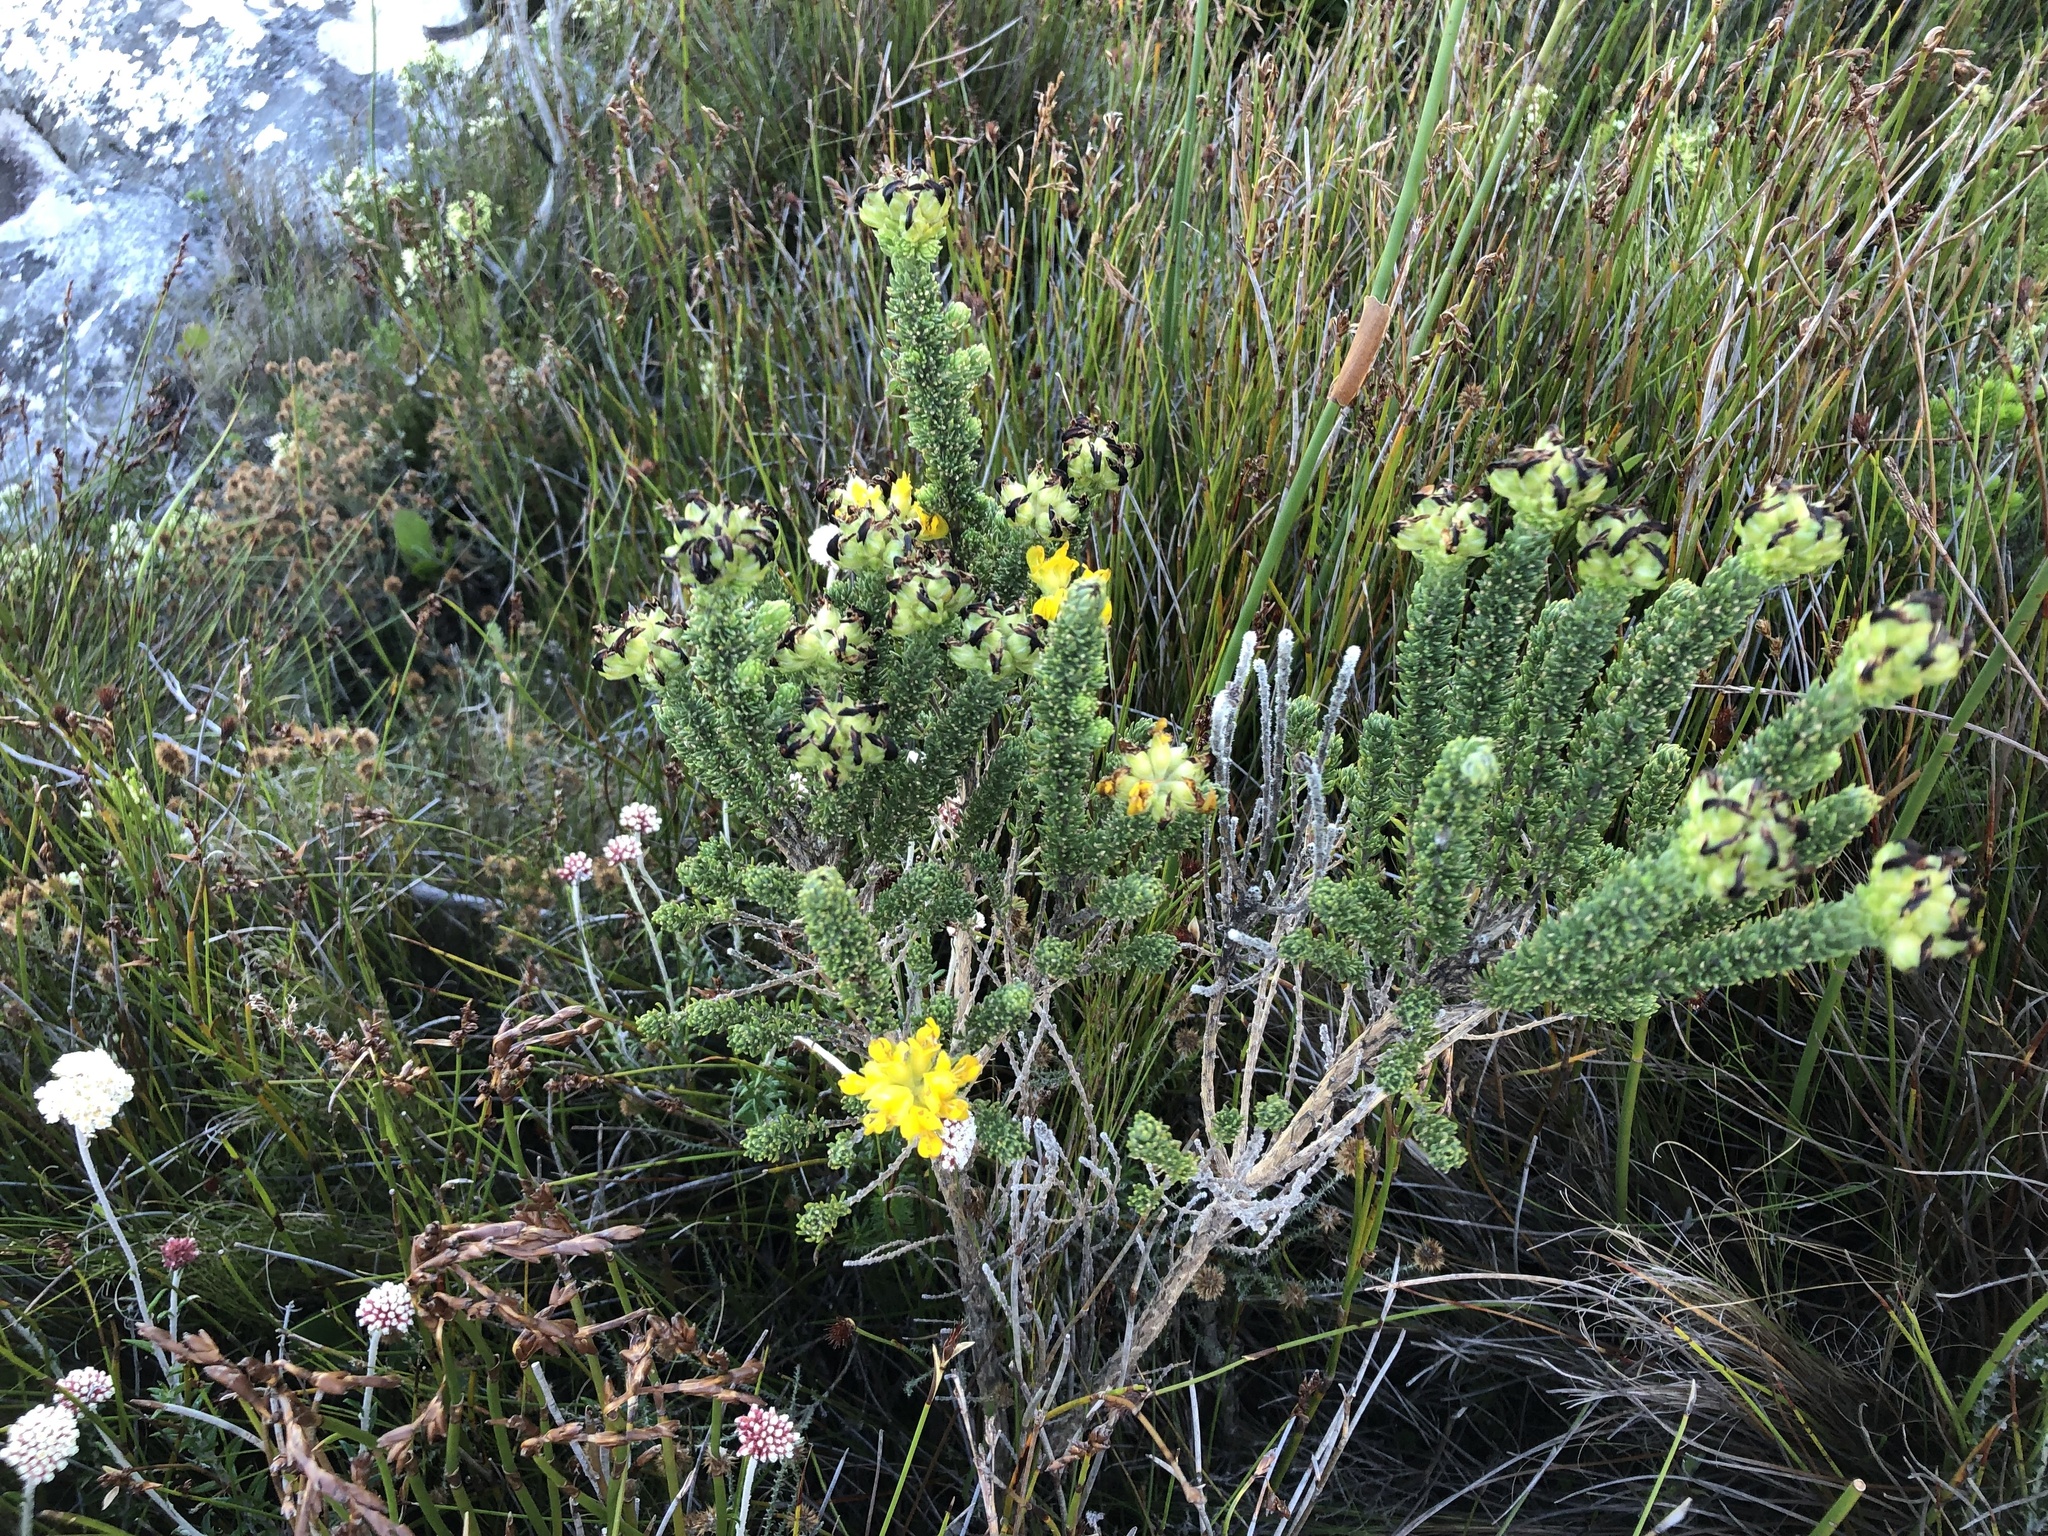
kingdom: Plantae
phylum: Tracheophyta
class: Magnoliopsida
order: Fabales
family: Fabaceae
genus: Aspalathus
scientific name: Aspalathus capitata
